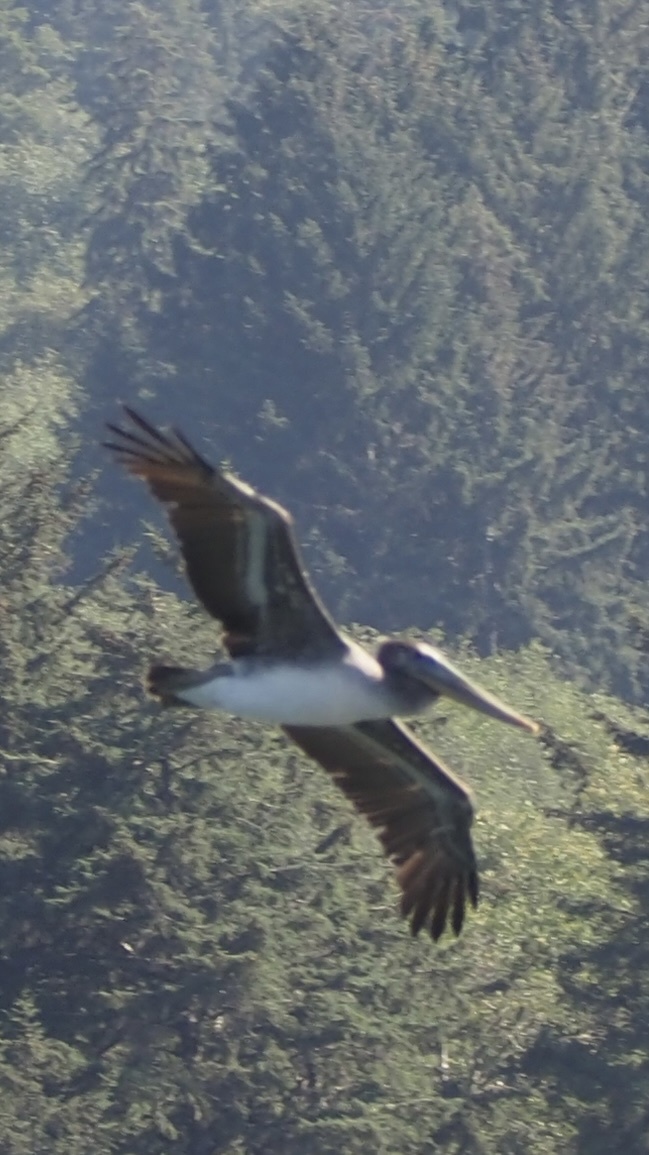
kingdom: Animalia
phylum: Chordata
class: Aves
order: Pelecaniformes
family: Pelecanidae
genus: Pelecanus
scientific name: Pelecanus occidentalis
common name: Brown pelican
